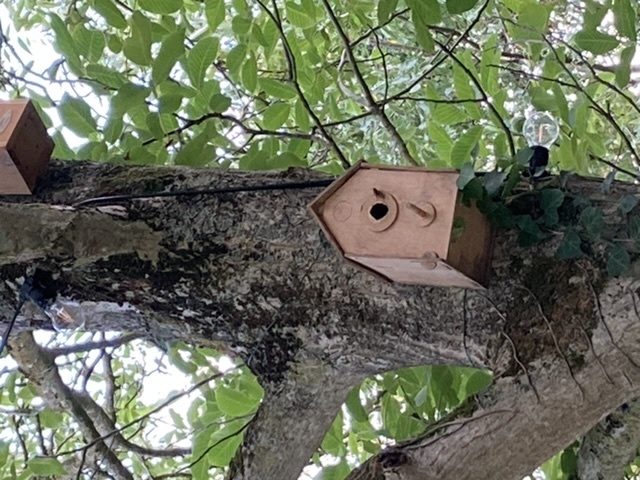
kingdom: Animalia
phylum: Arthropoda
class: Insecta
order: Hymenoptera
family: Vespidae
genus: Vespa
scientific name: Vespa crabro
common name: Hornet
